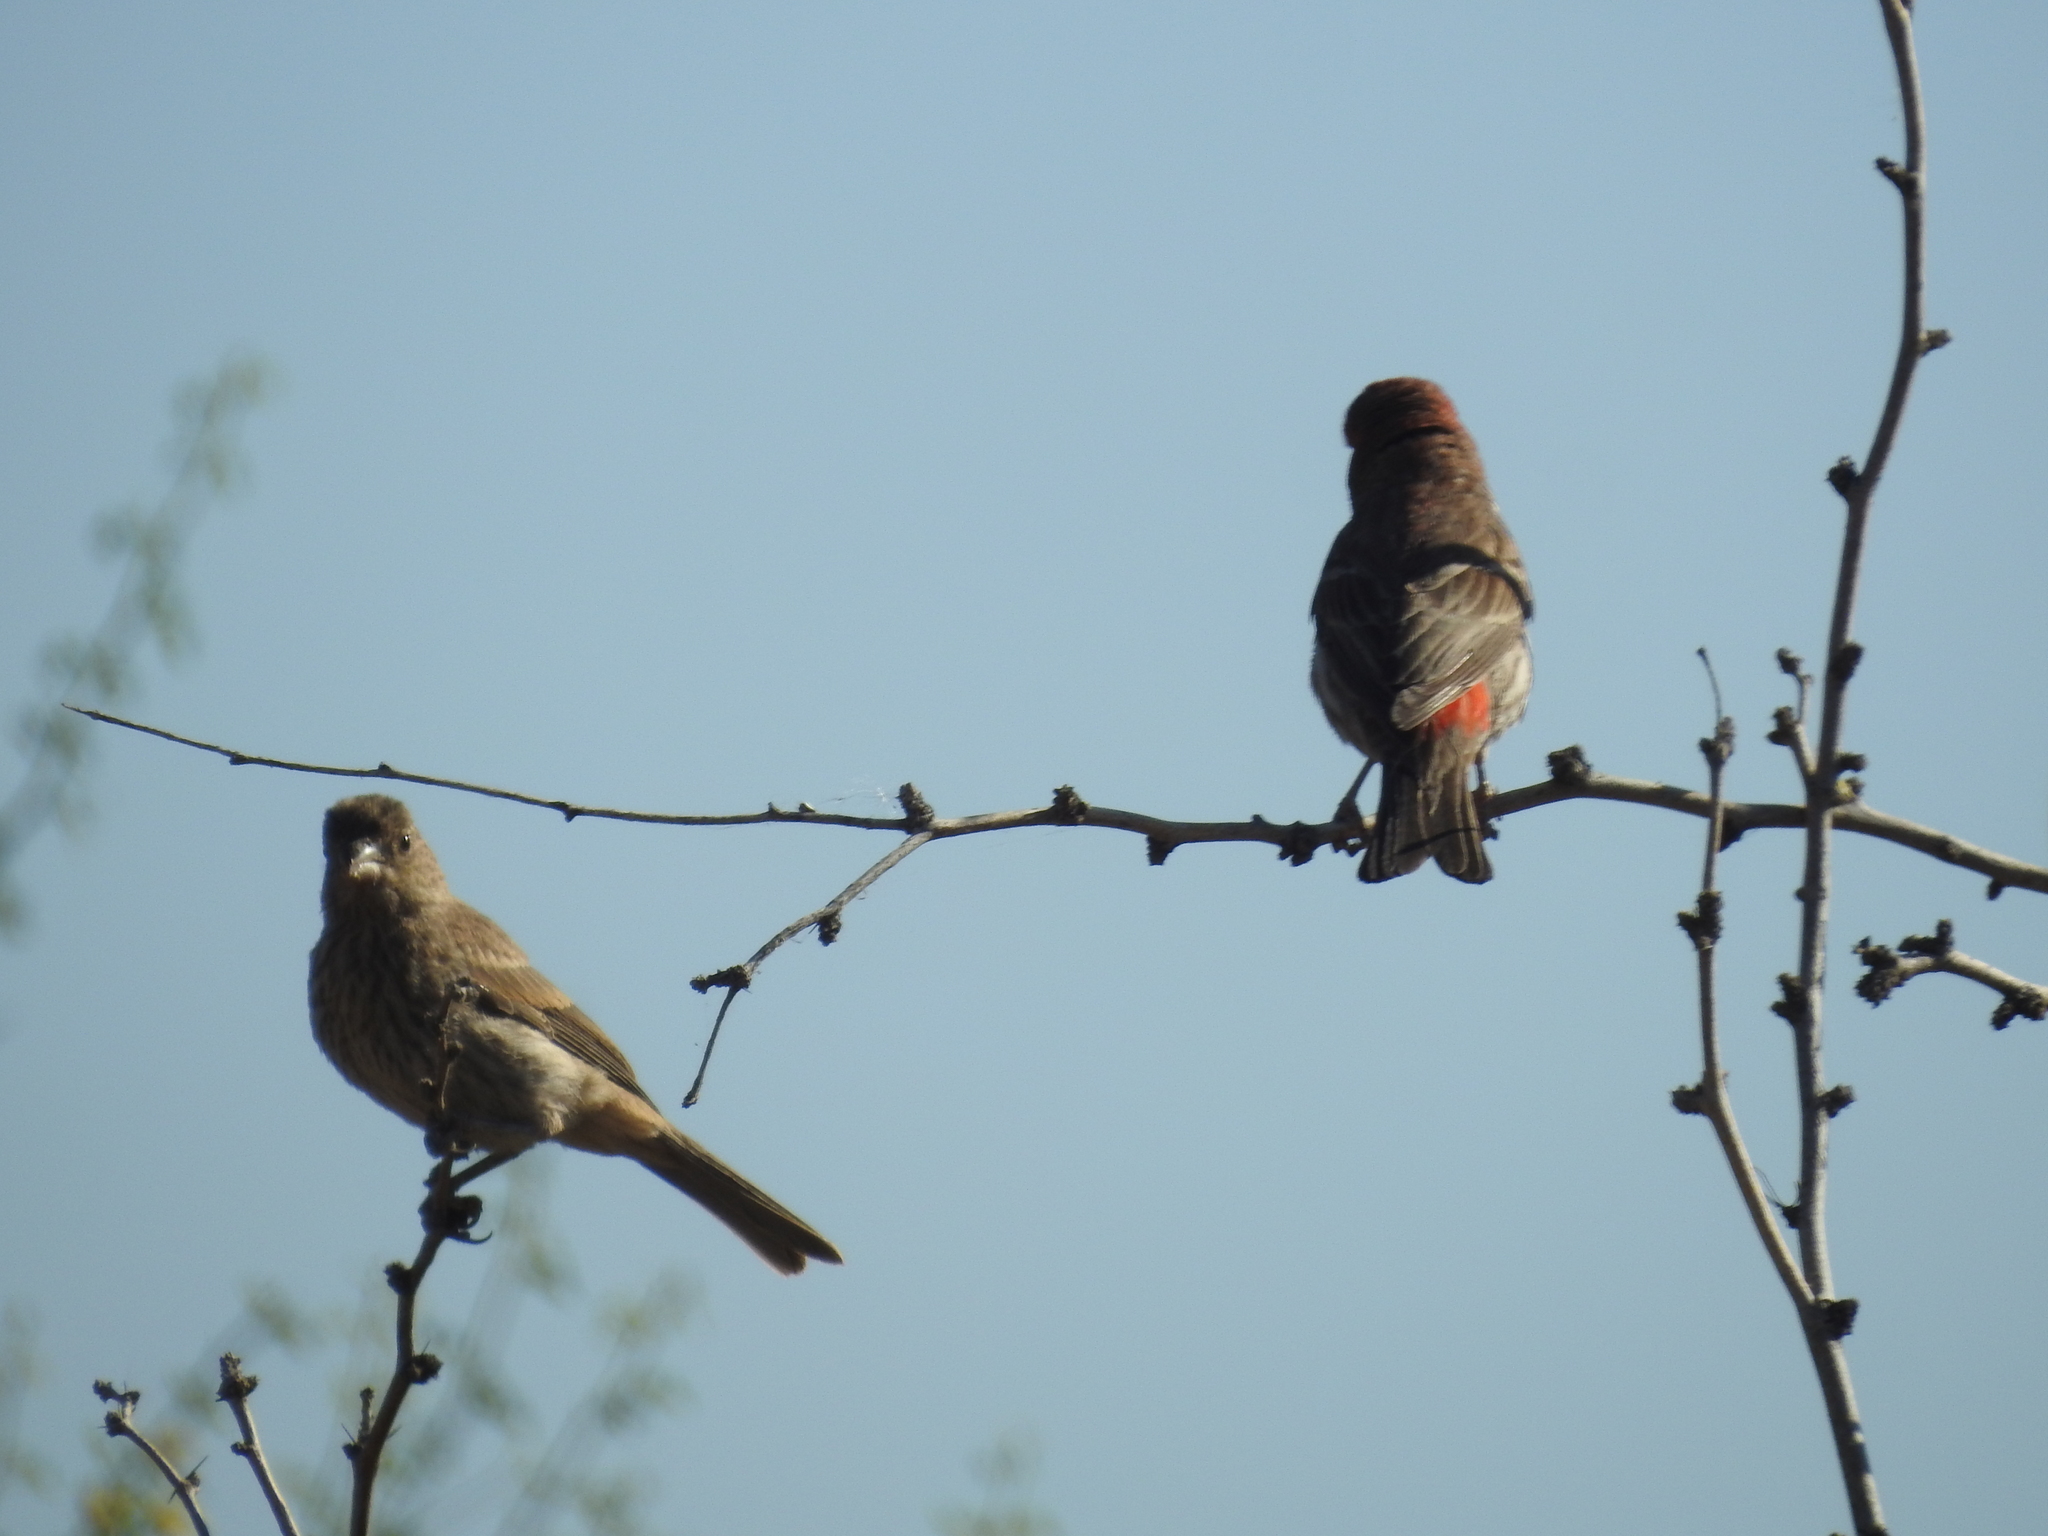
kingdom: Animalia
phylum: Chordata
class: Aves
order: Passeriformes
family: Fringillidae
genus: Haemorhous
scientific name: Haemorhous mexicanus
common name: House finch
